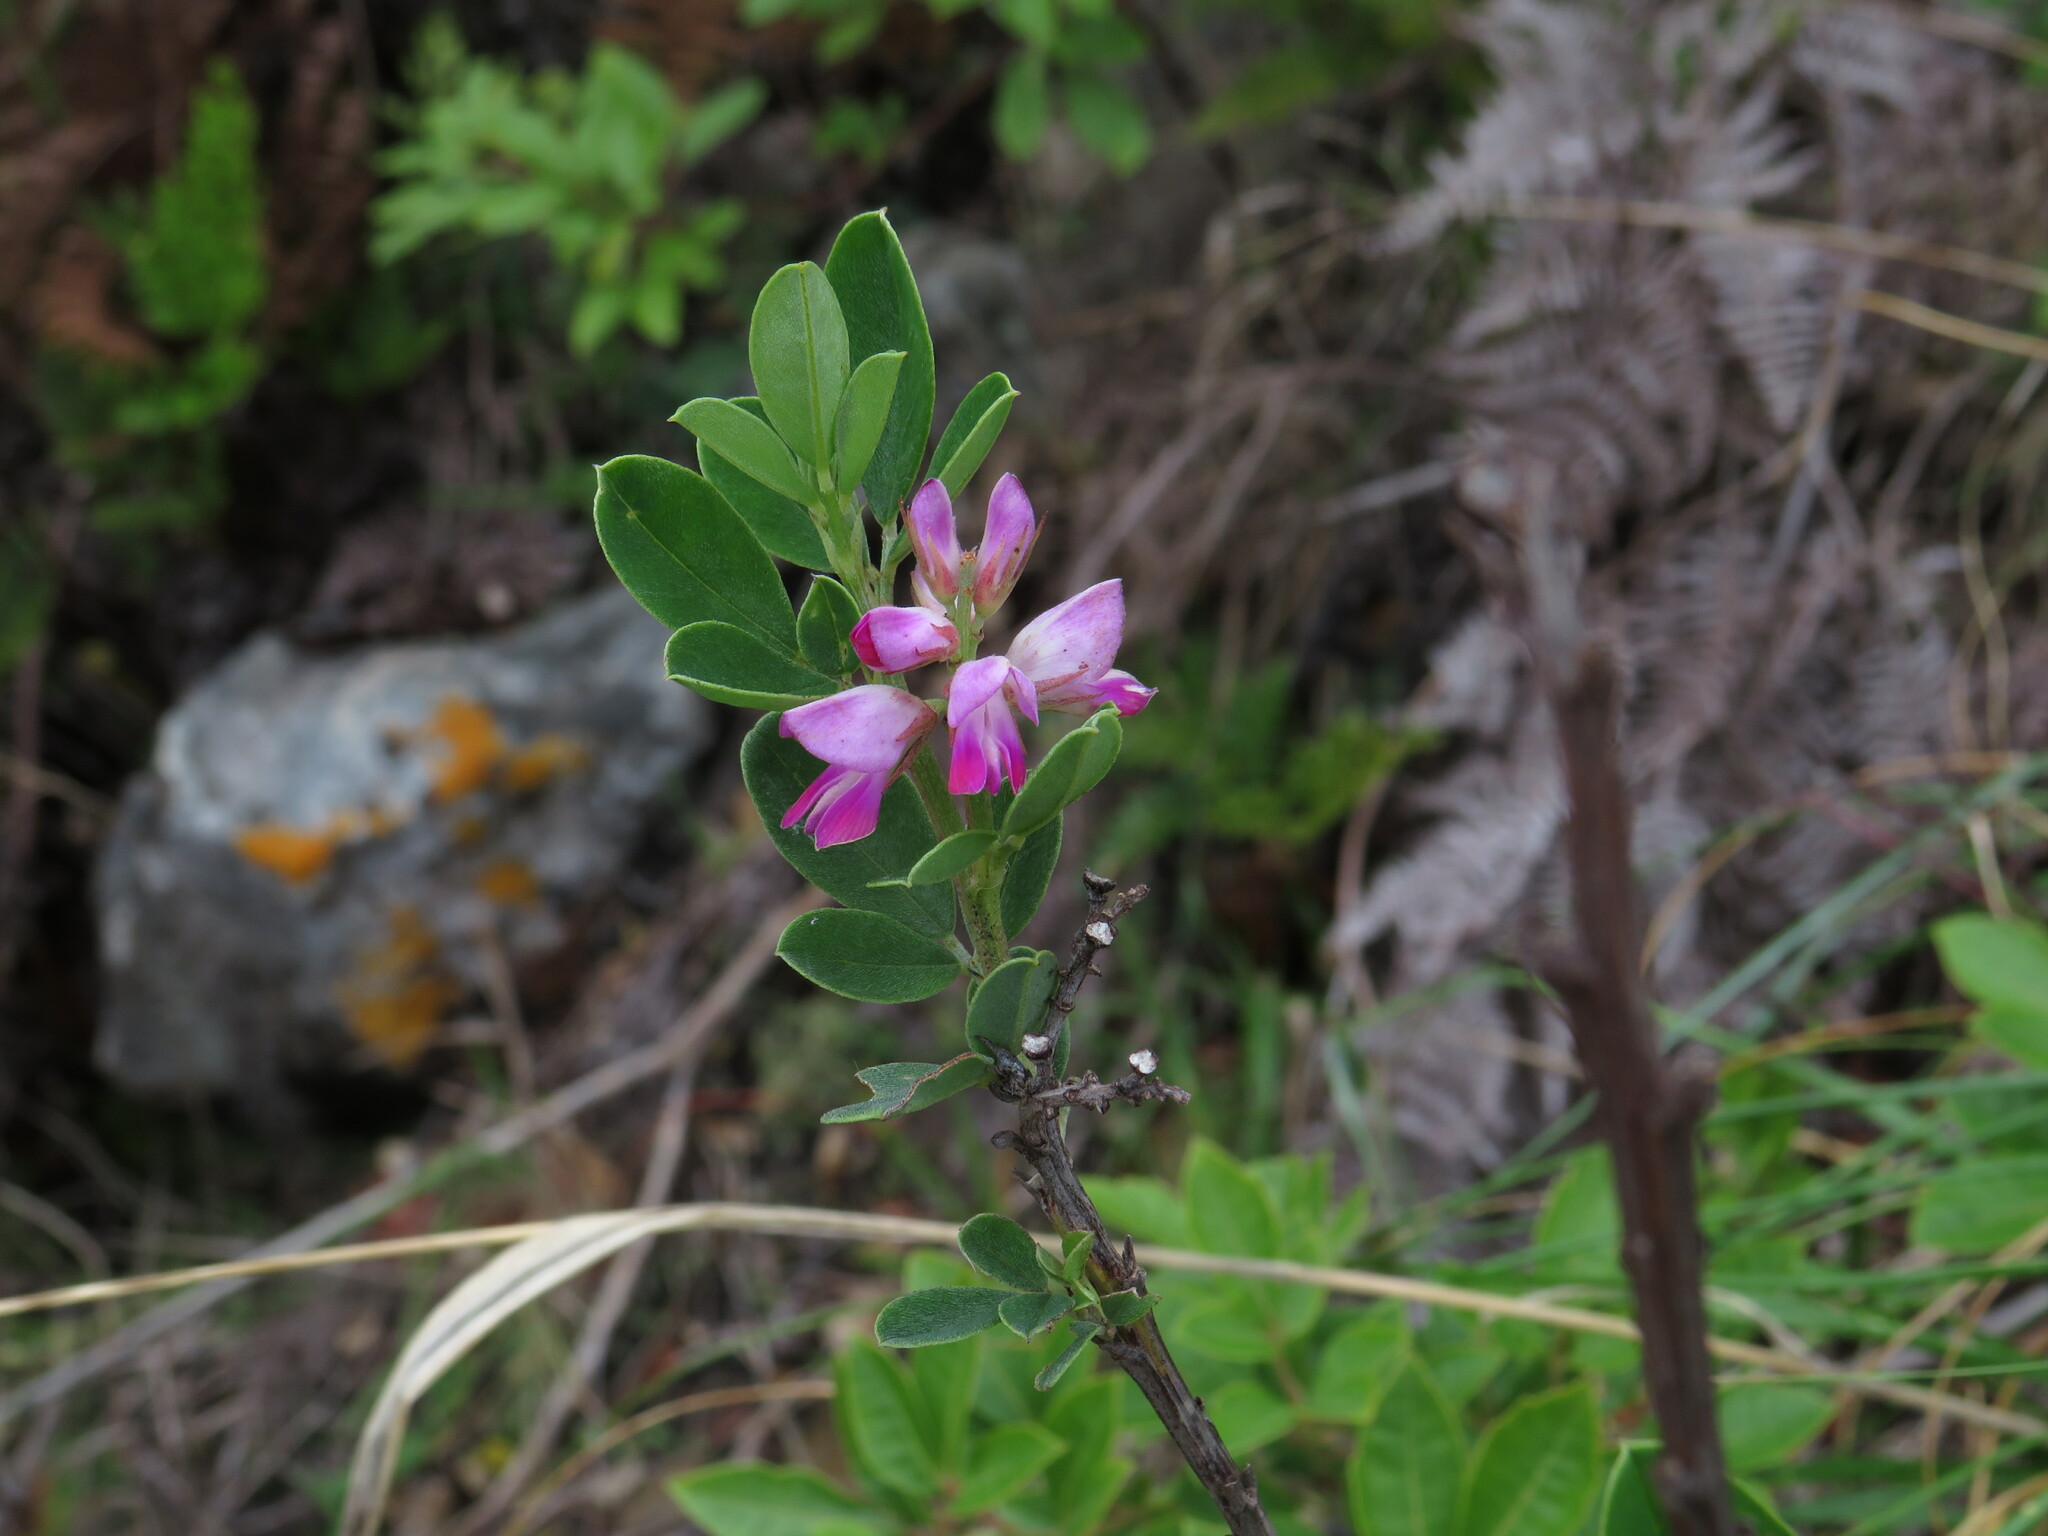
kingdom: Plantae
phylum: Tracheophyta
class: Magnoliopsida
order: Fabales
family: Fabaceae
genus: Indigofera
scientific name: Indigofera cytisoides
